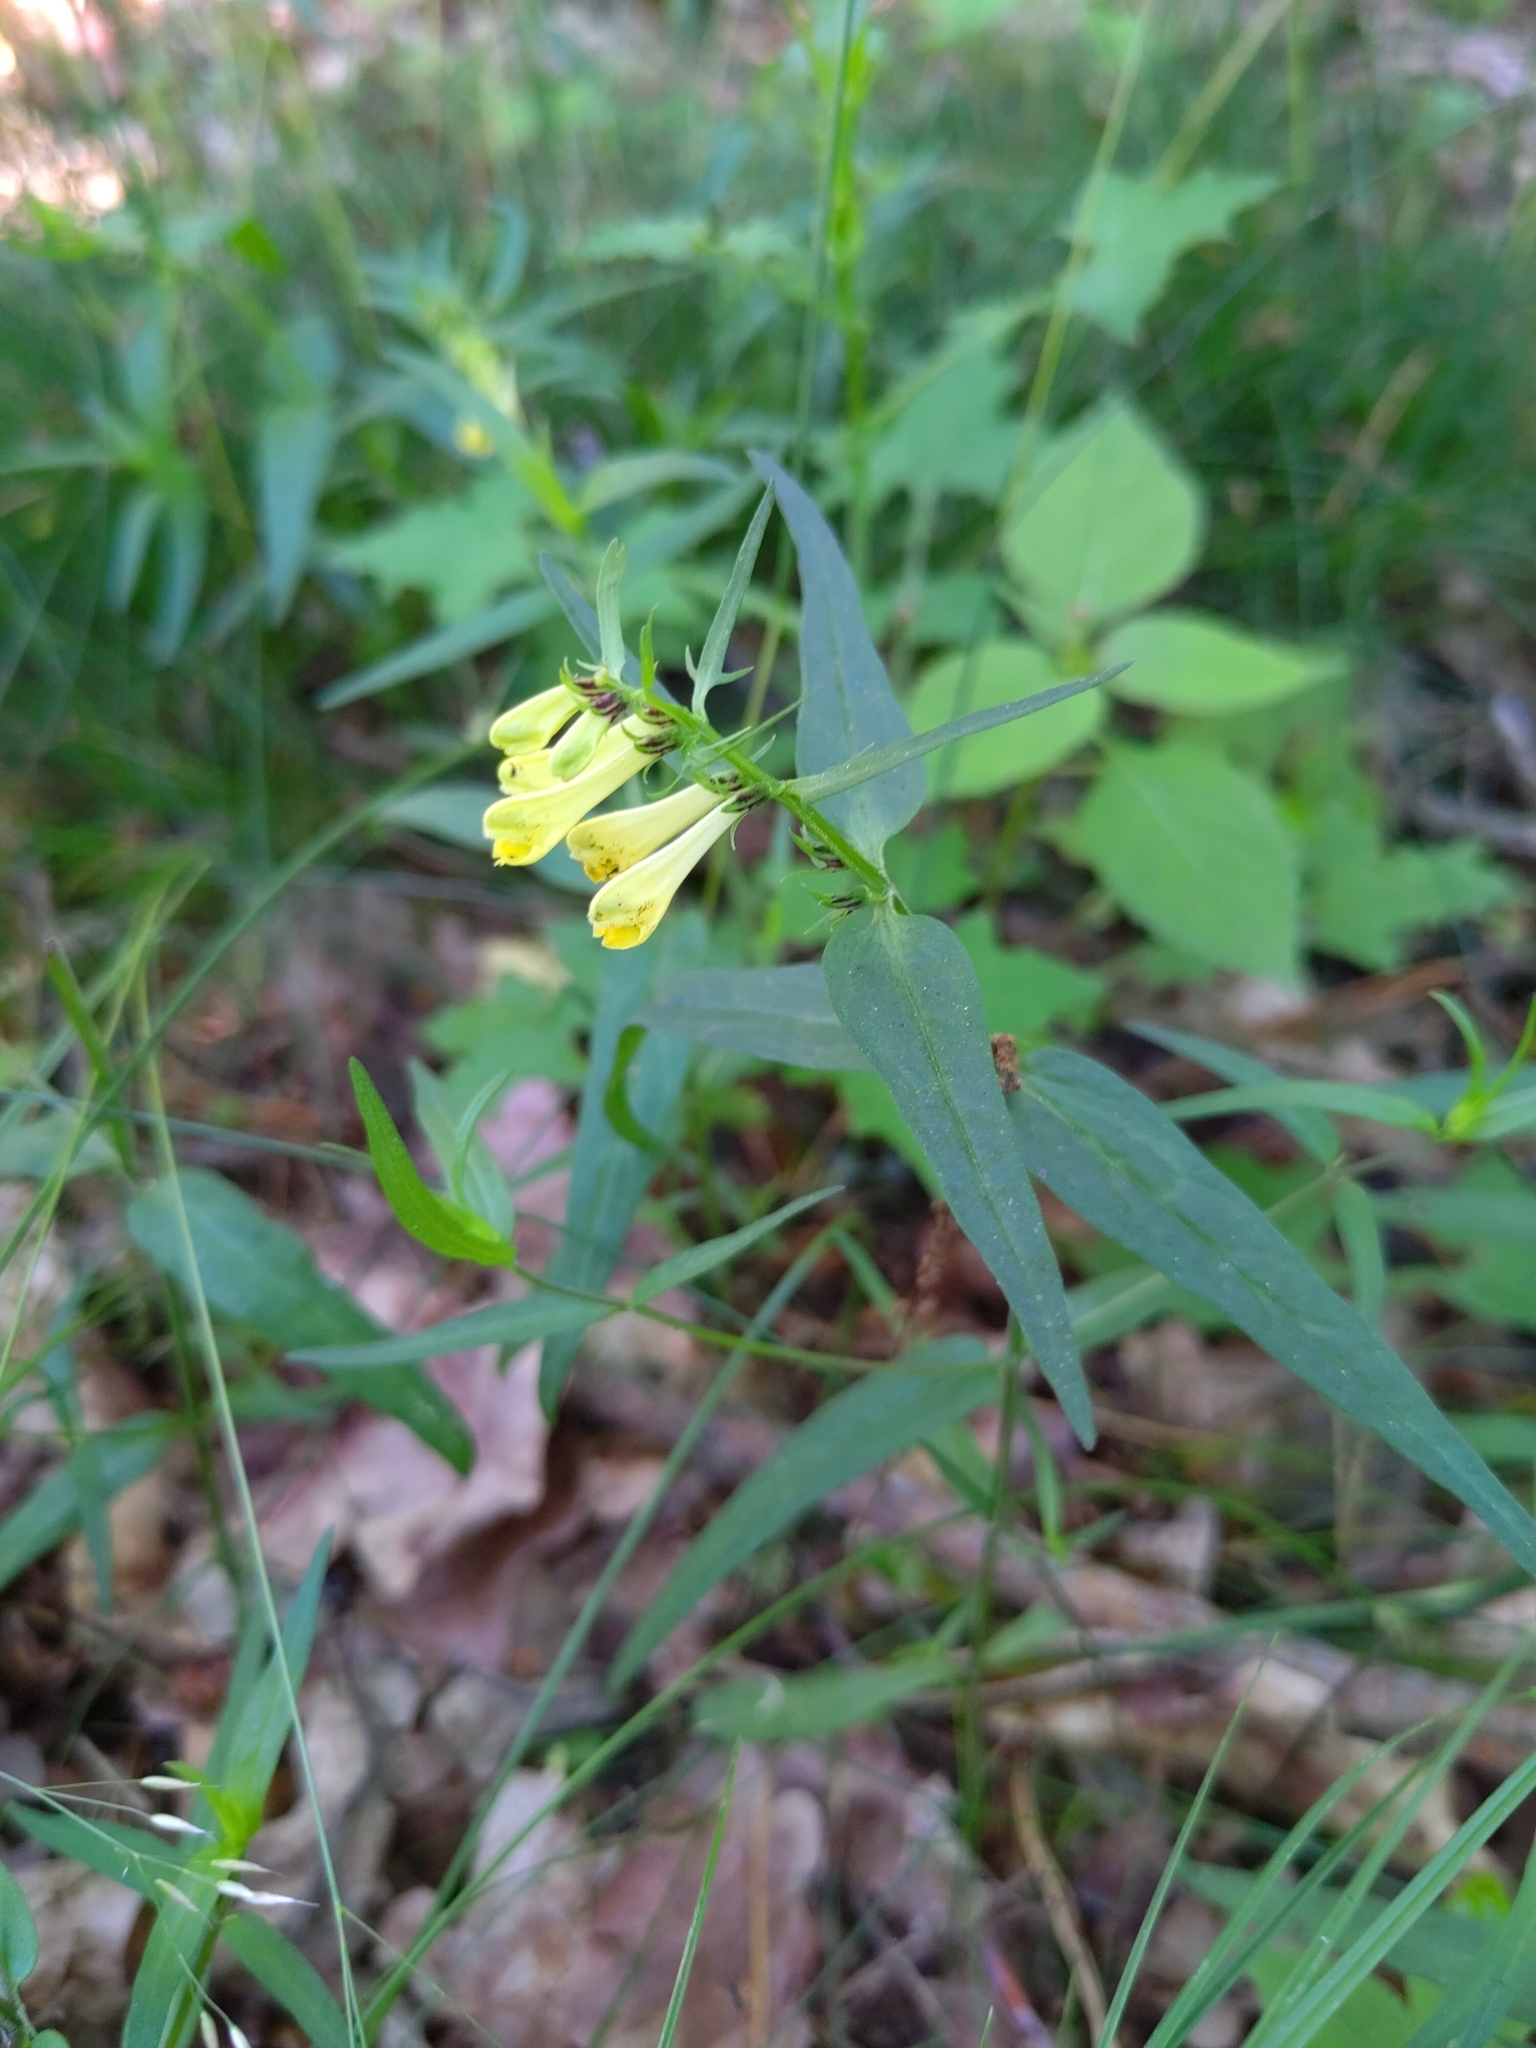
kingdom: Plantae
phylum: Tracheophyta
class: Magnoliopsida
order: Lamiales
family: Orobanchaceae
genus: Melampyrum
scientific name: Melampyrum pratense
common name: Common cow-wheat
